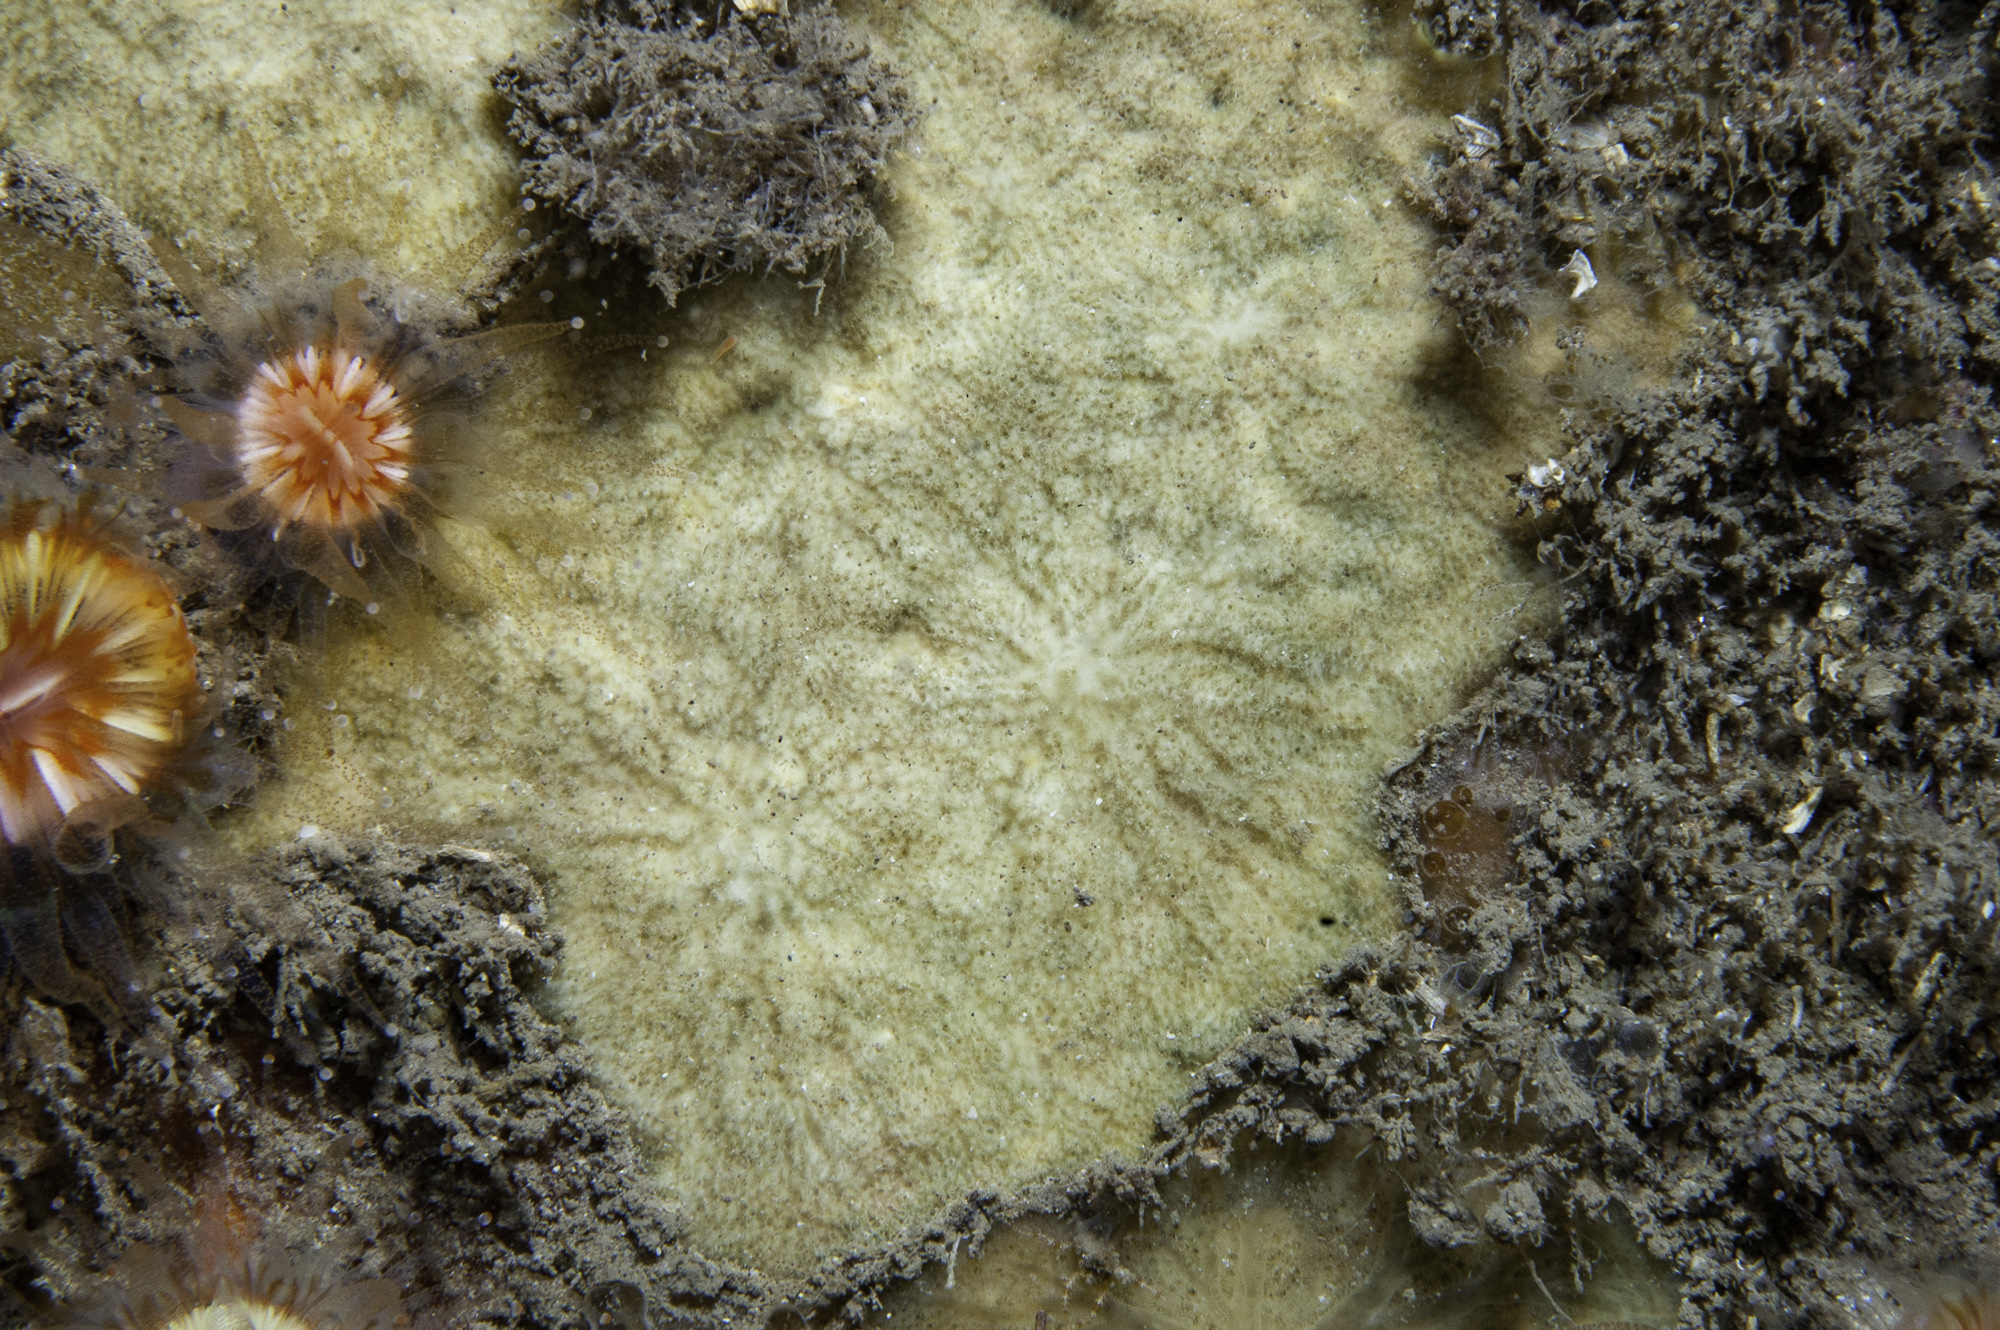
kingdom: Animalia
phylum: Porifera
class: Demospongiae
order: Poecilosclerida
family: Microcionidae
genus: Clathria
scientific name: Clathria elliptichela
